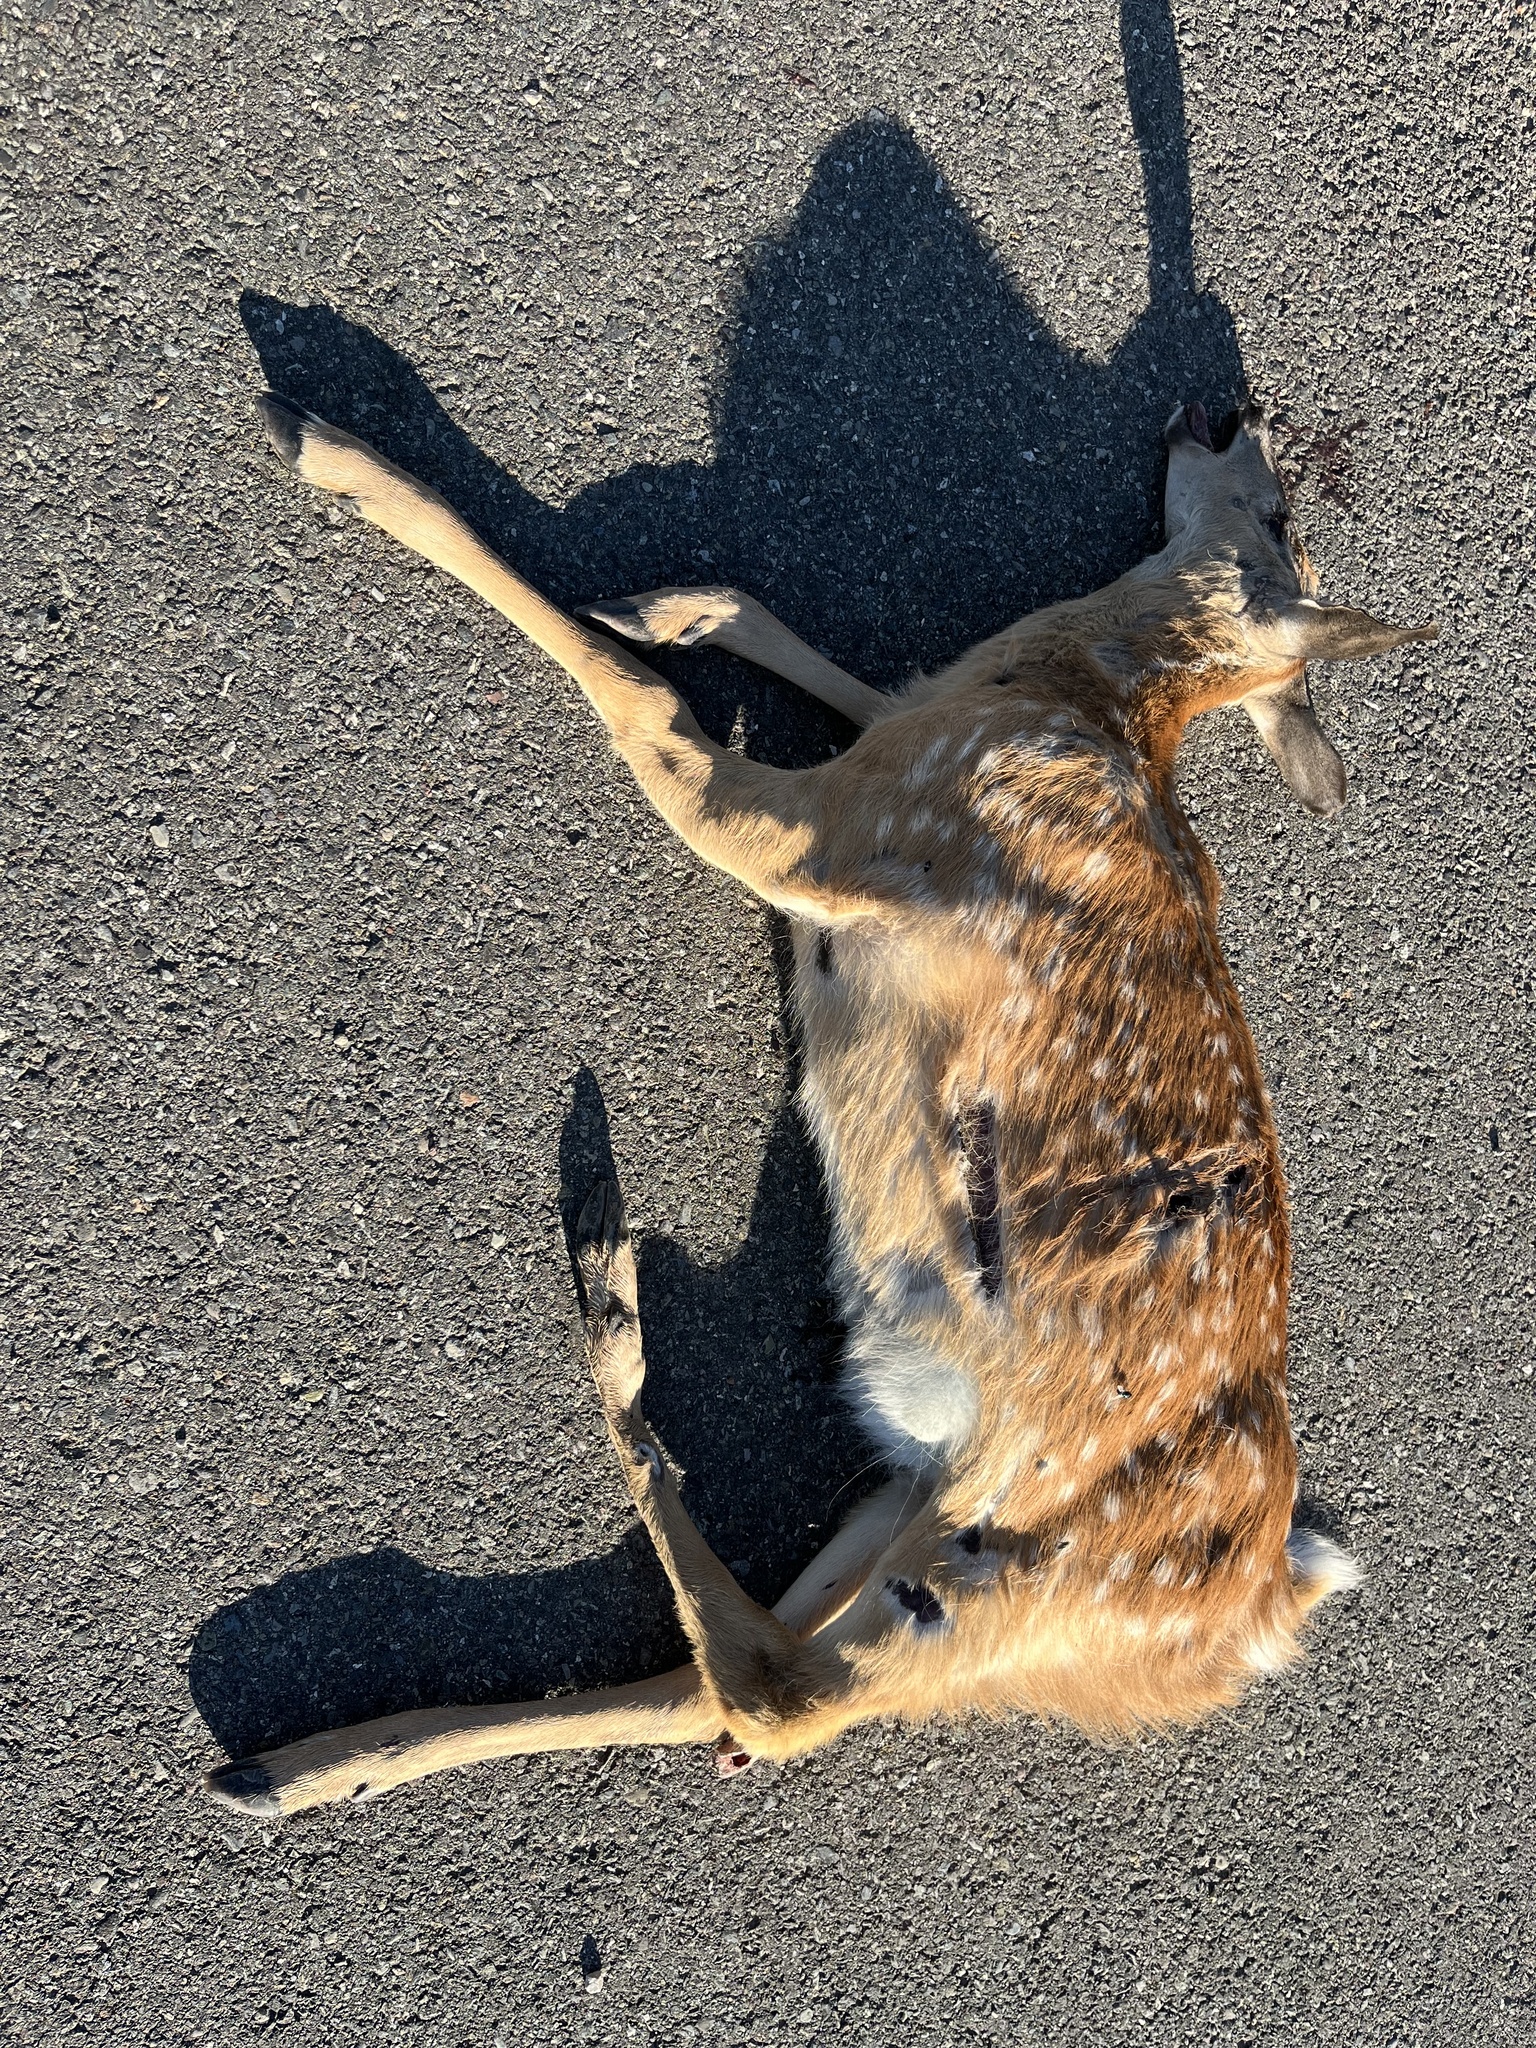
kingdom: Animalia
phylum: Chordata
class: Mammalia
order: Artiodactyla
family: Cervidae
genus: Odocoileus
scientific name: Odocoileus virginianus
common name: White-tailed deer
